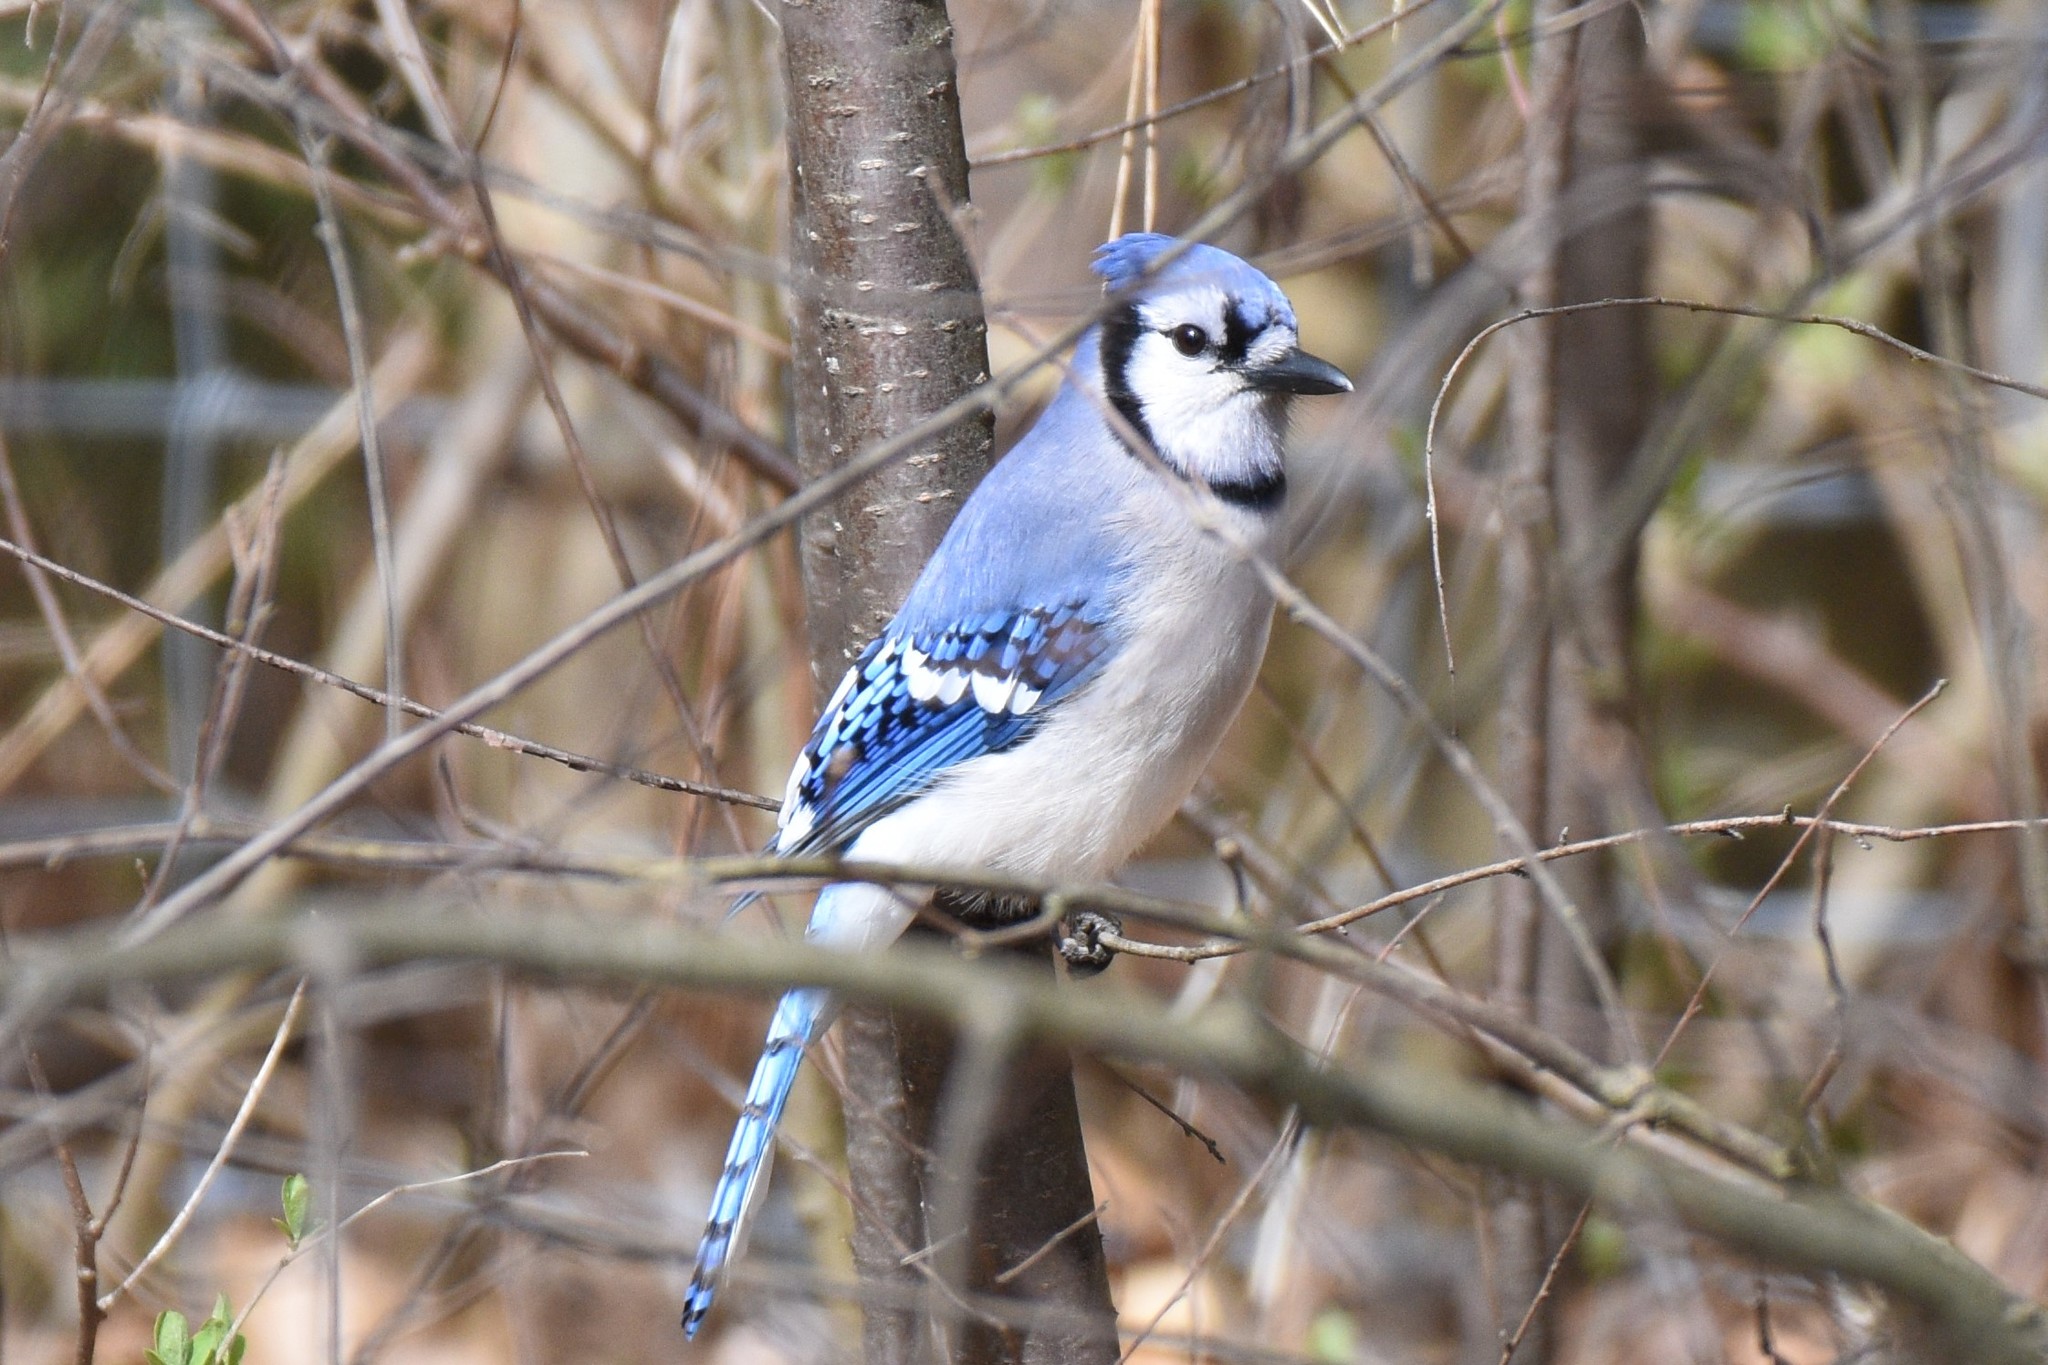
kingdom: Animalia
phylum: Chordata
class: Aves
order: Passeriformes
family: Corvidae
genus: Cyanocitta
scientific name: Cyanocitta cristata
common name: Blue jay
